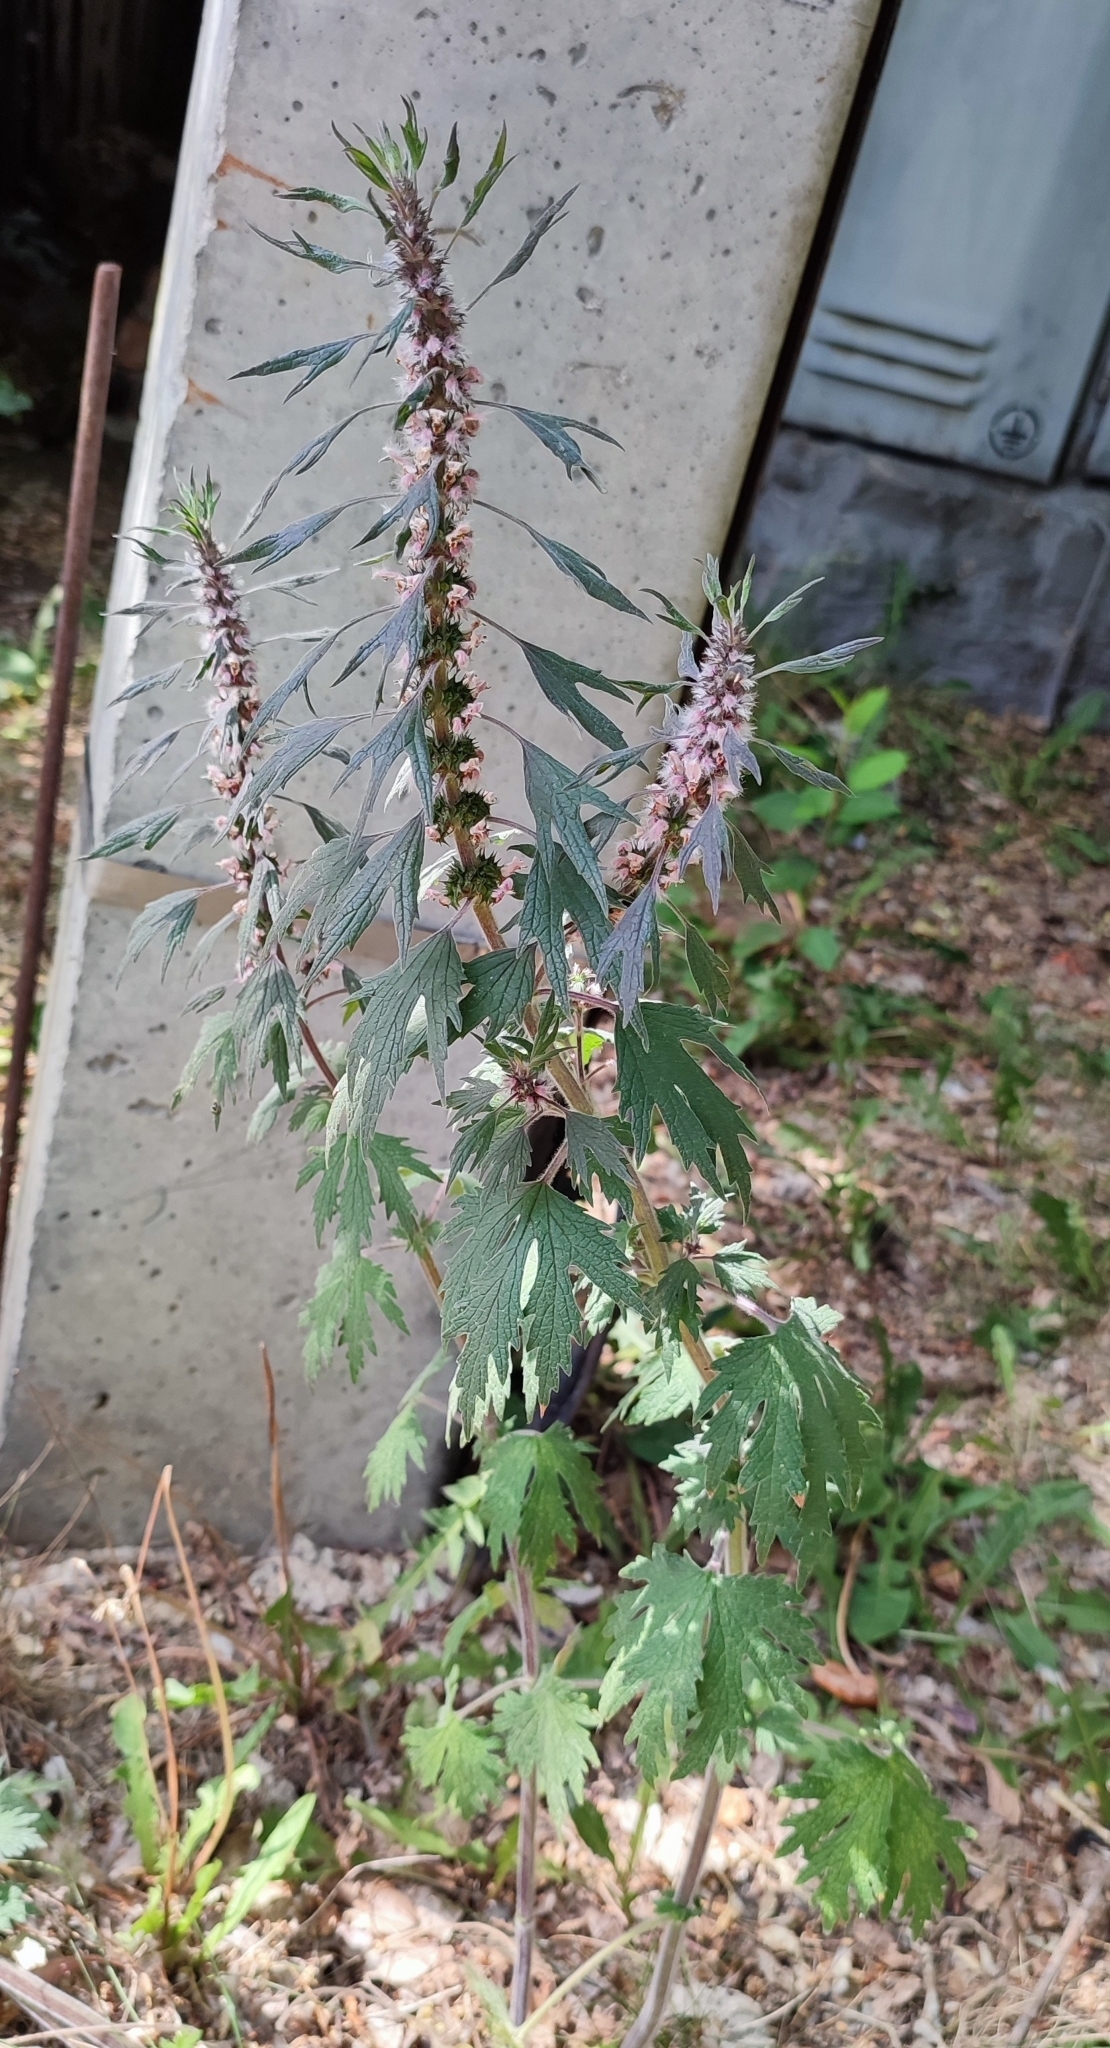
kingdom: Plantae
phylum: Tracheophyta
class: Magnoliopsida
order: Lamiales
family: Lamiaceae
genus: Leonurus
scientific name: Leonurus quinquelobatus
